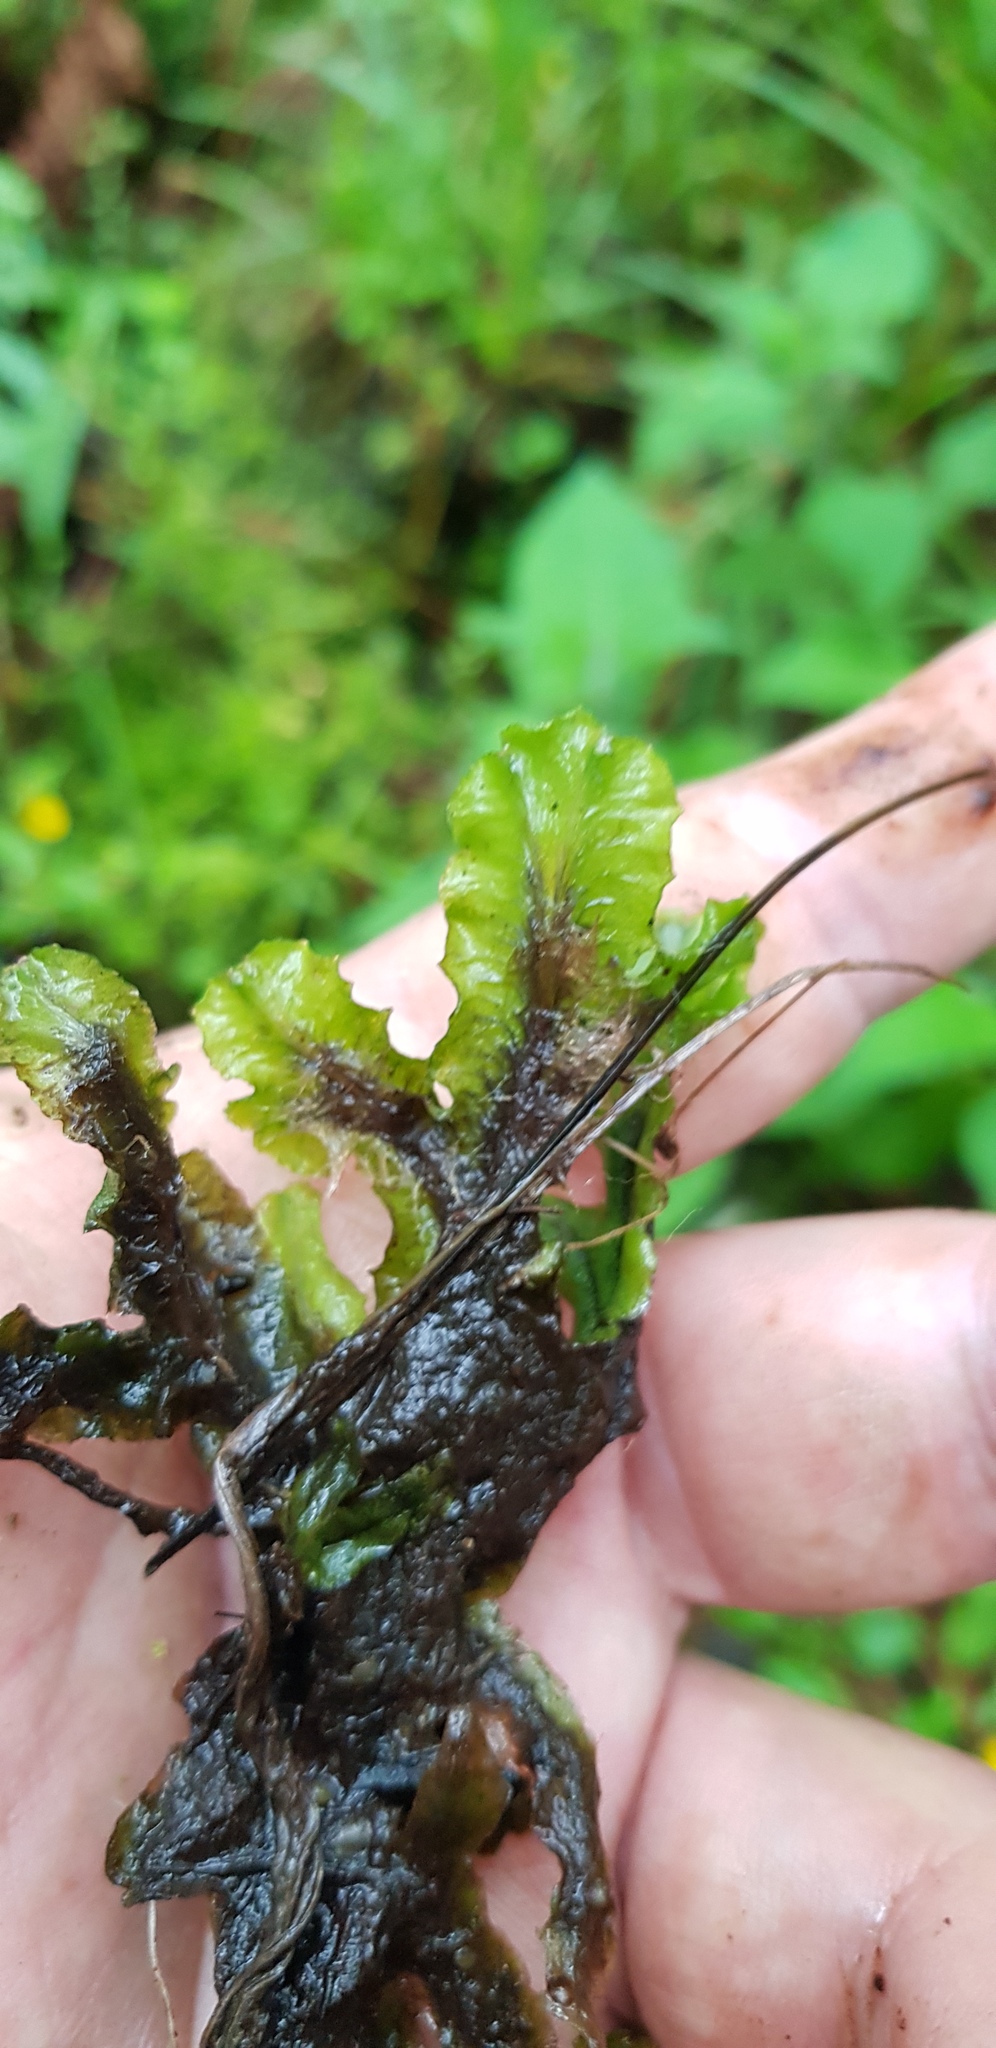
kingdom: Plantae
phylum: Marchantiophyta
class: Marchantiopsida
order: Marchantiales
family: Marchantiaceae
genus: Marchantia
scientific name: Marchantia polymorpha
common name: Common liverwort
